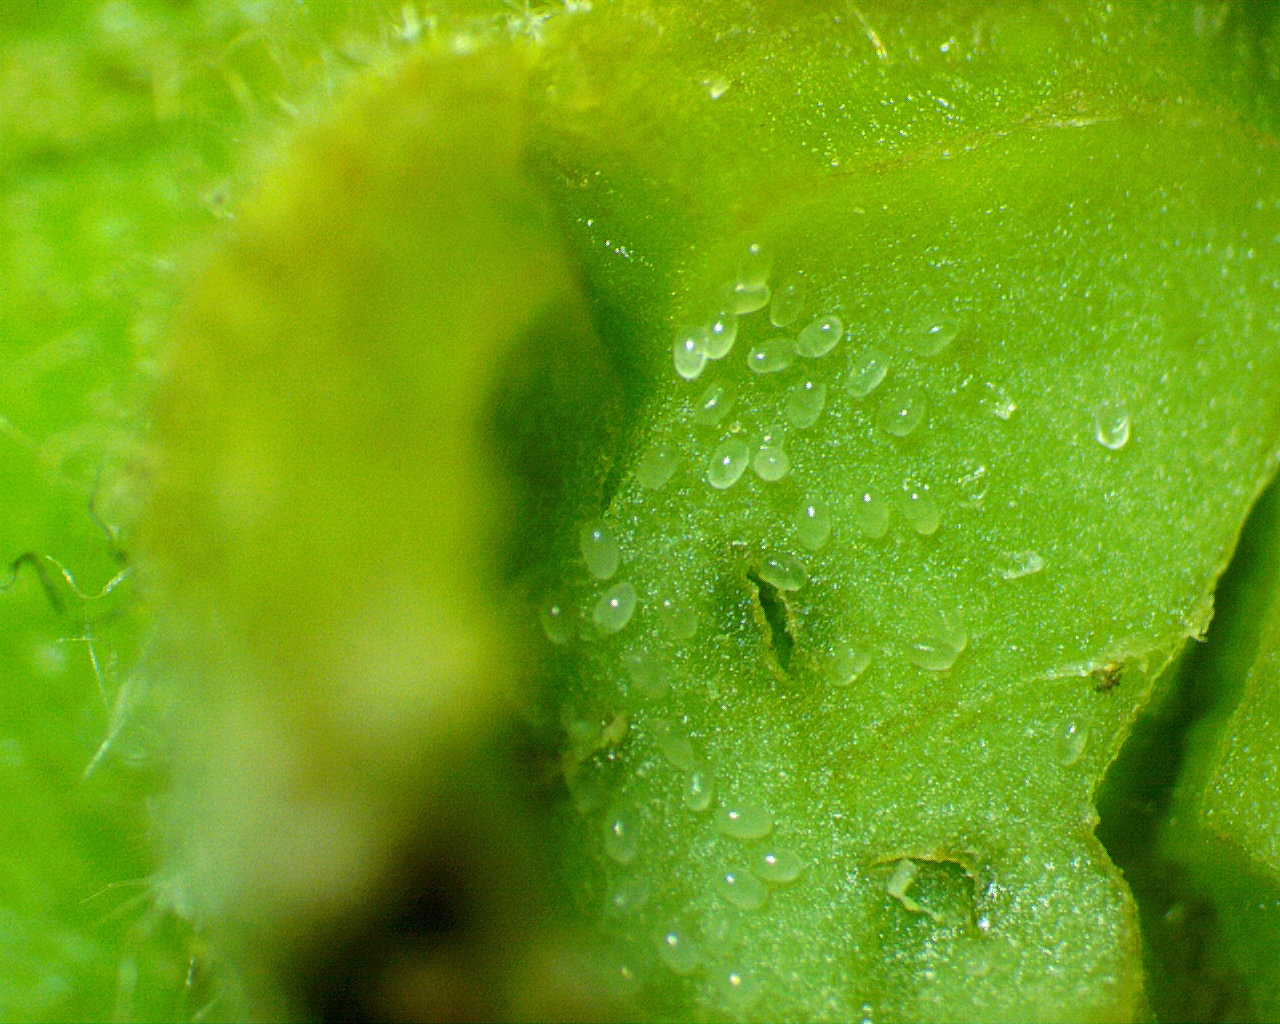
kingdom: Animalia
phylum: Arthropoda
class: Insecta
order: Hemiptera
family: Phylloxeridae
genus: Phylloxera
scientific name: Phylloxera caryae-avellana
